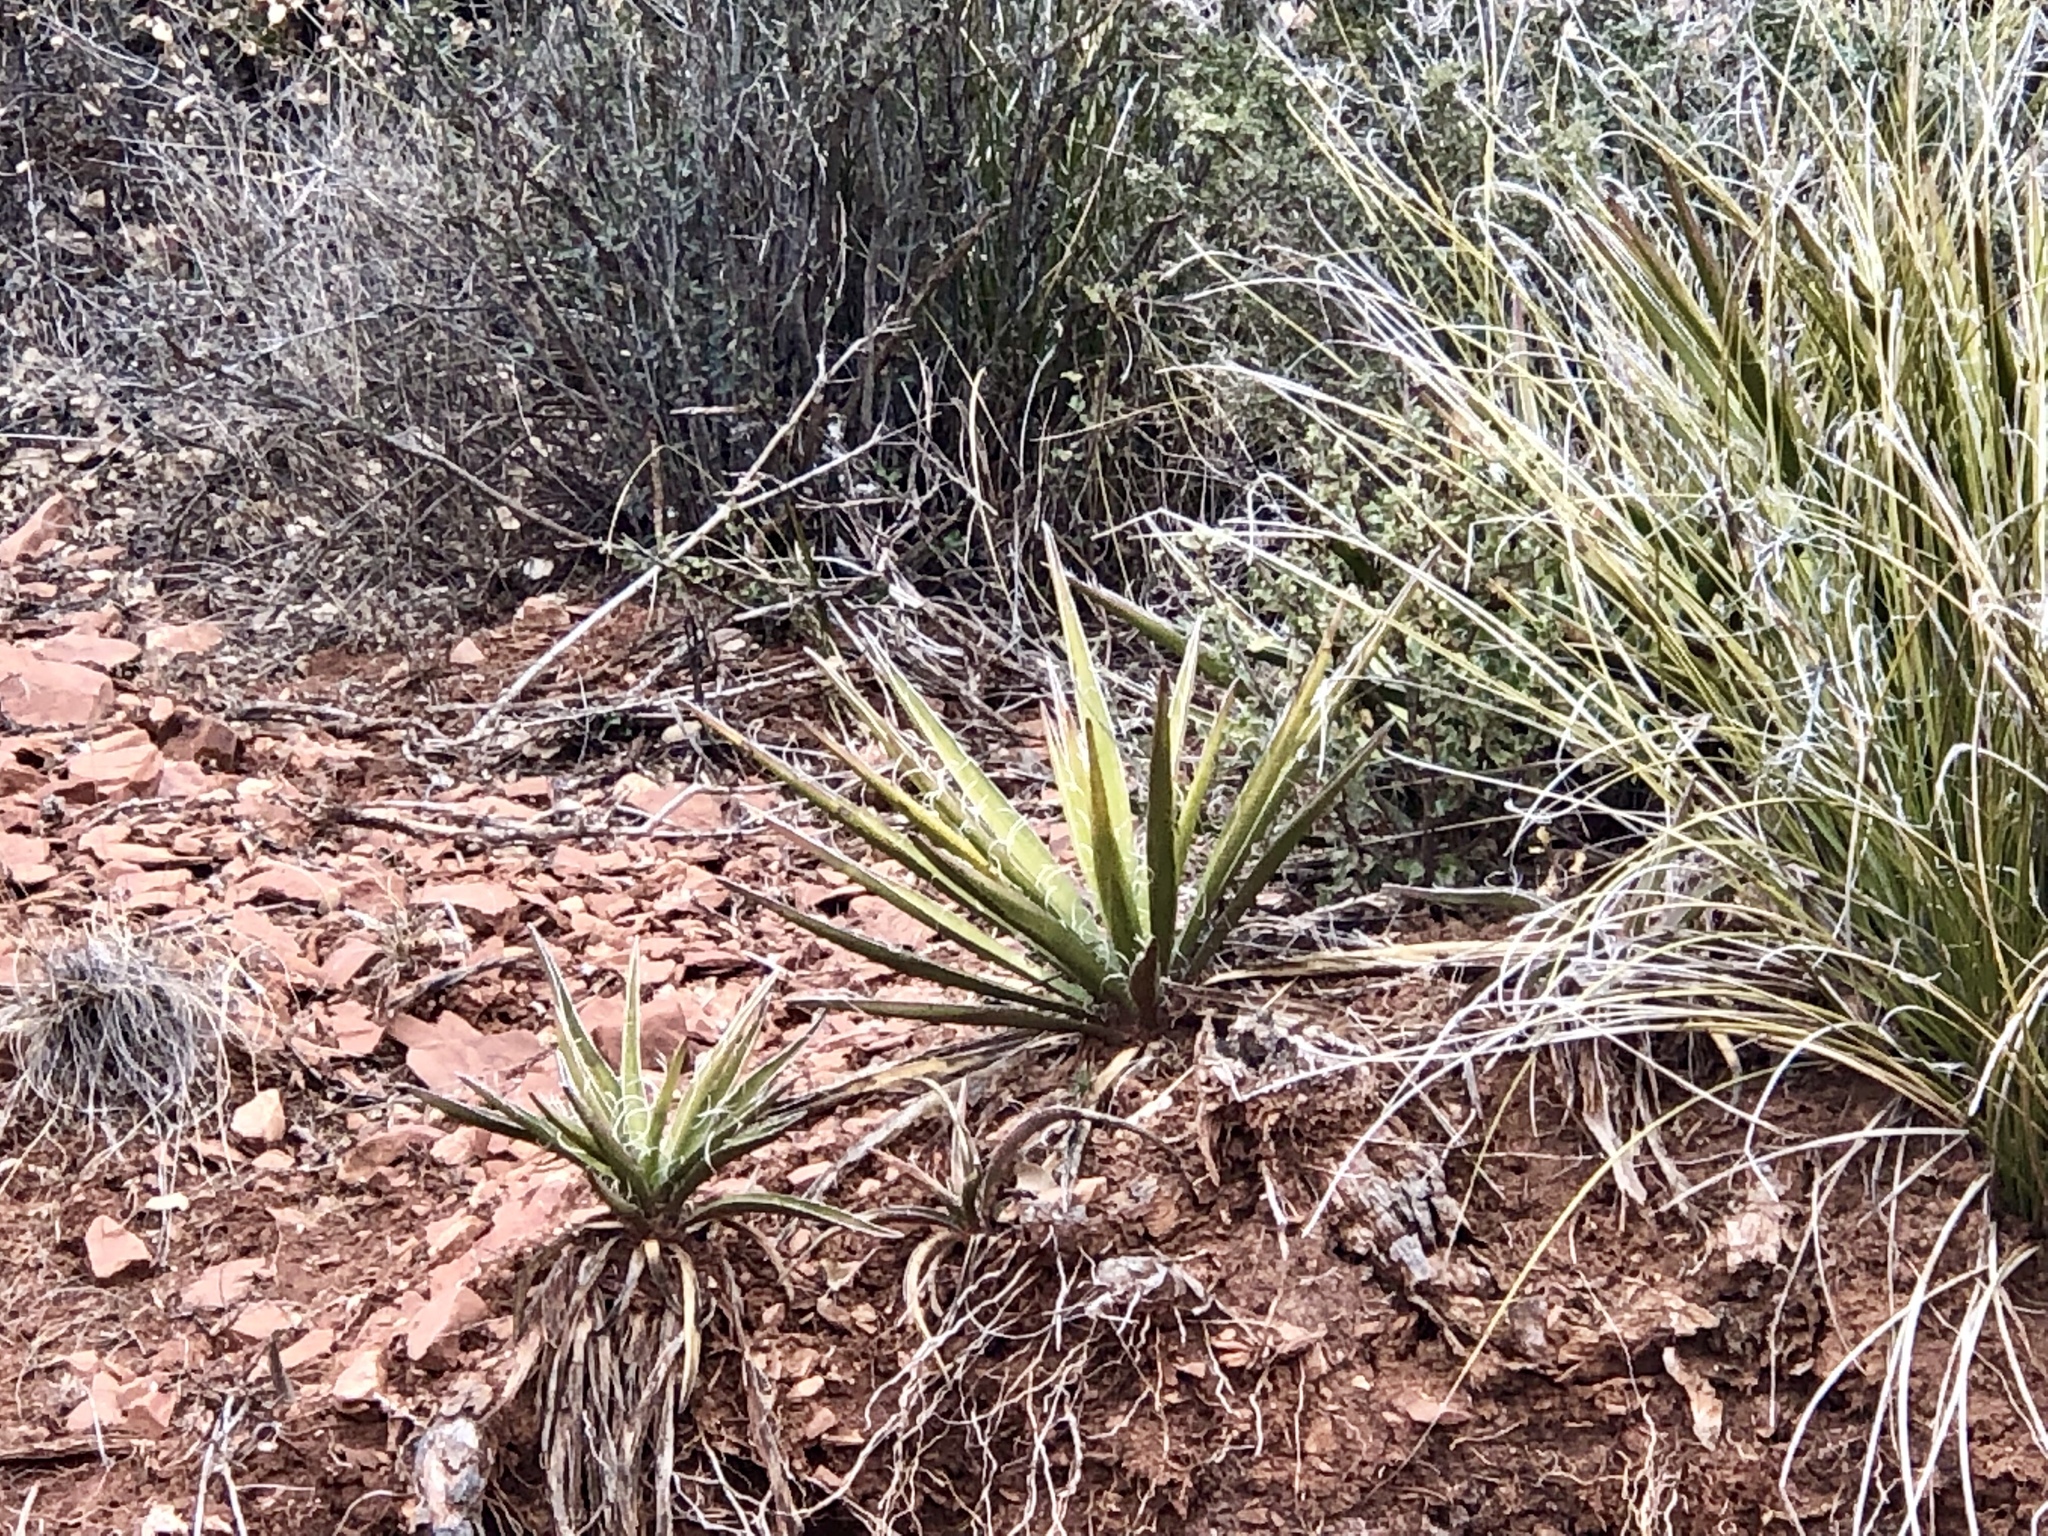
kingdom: Plantae
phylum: Tracheophyta
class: Liliopsida
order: Asparagales
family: Asparagaceae
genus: Yucca
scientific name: Yucca baccata
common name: Banana yucca
